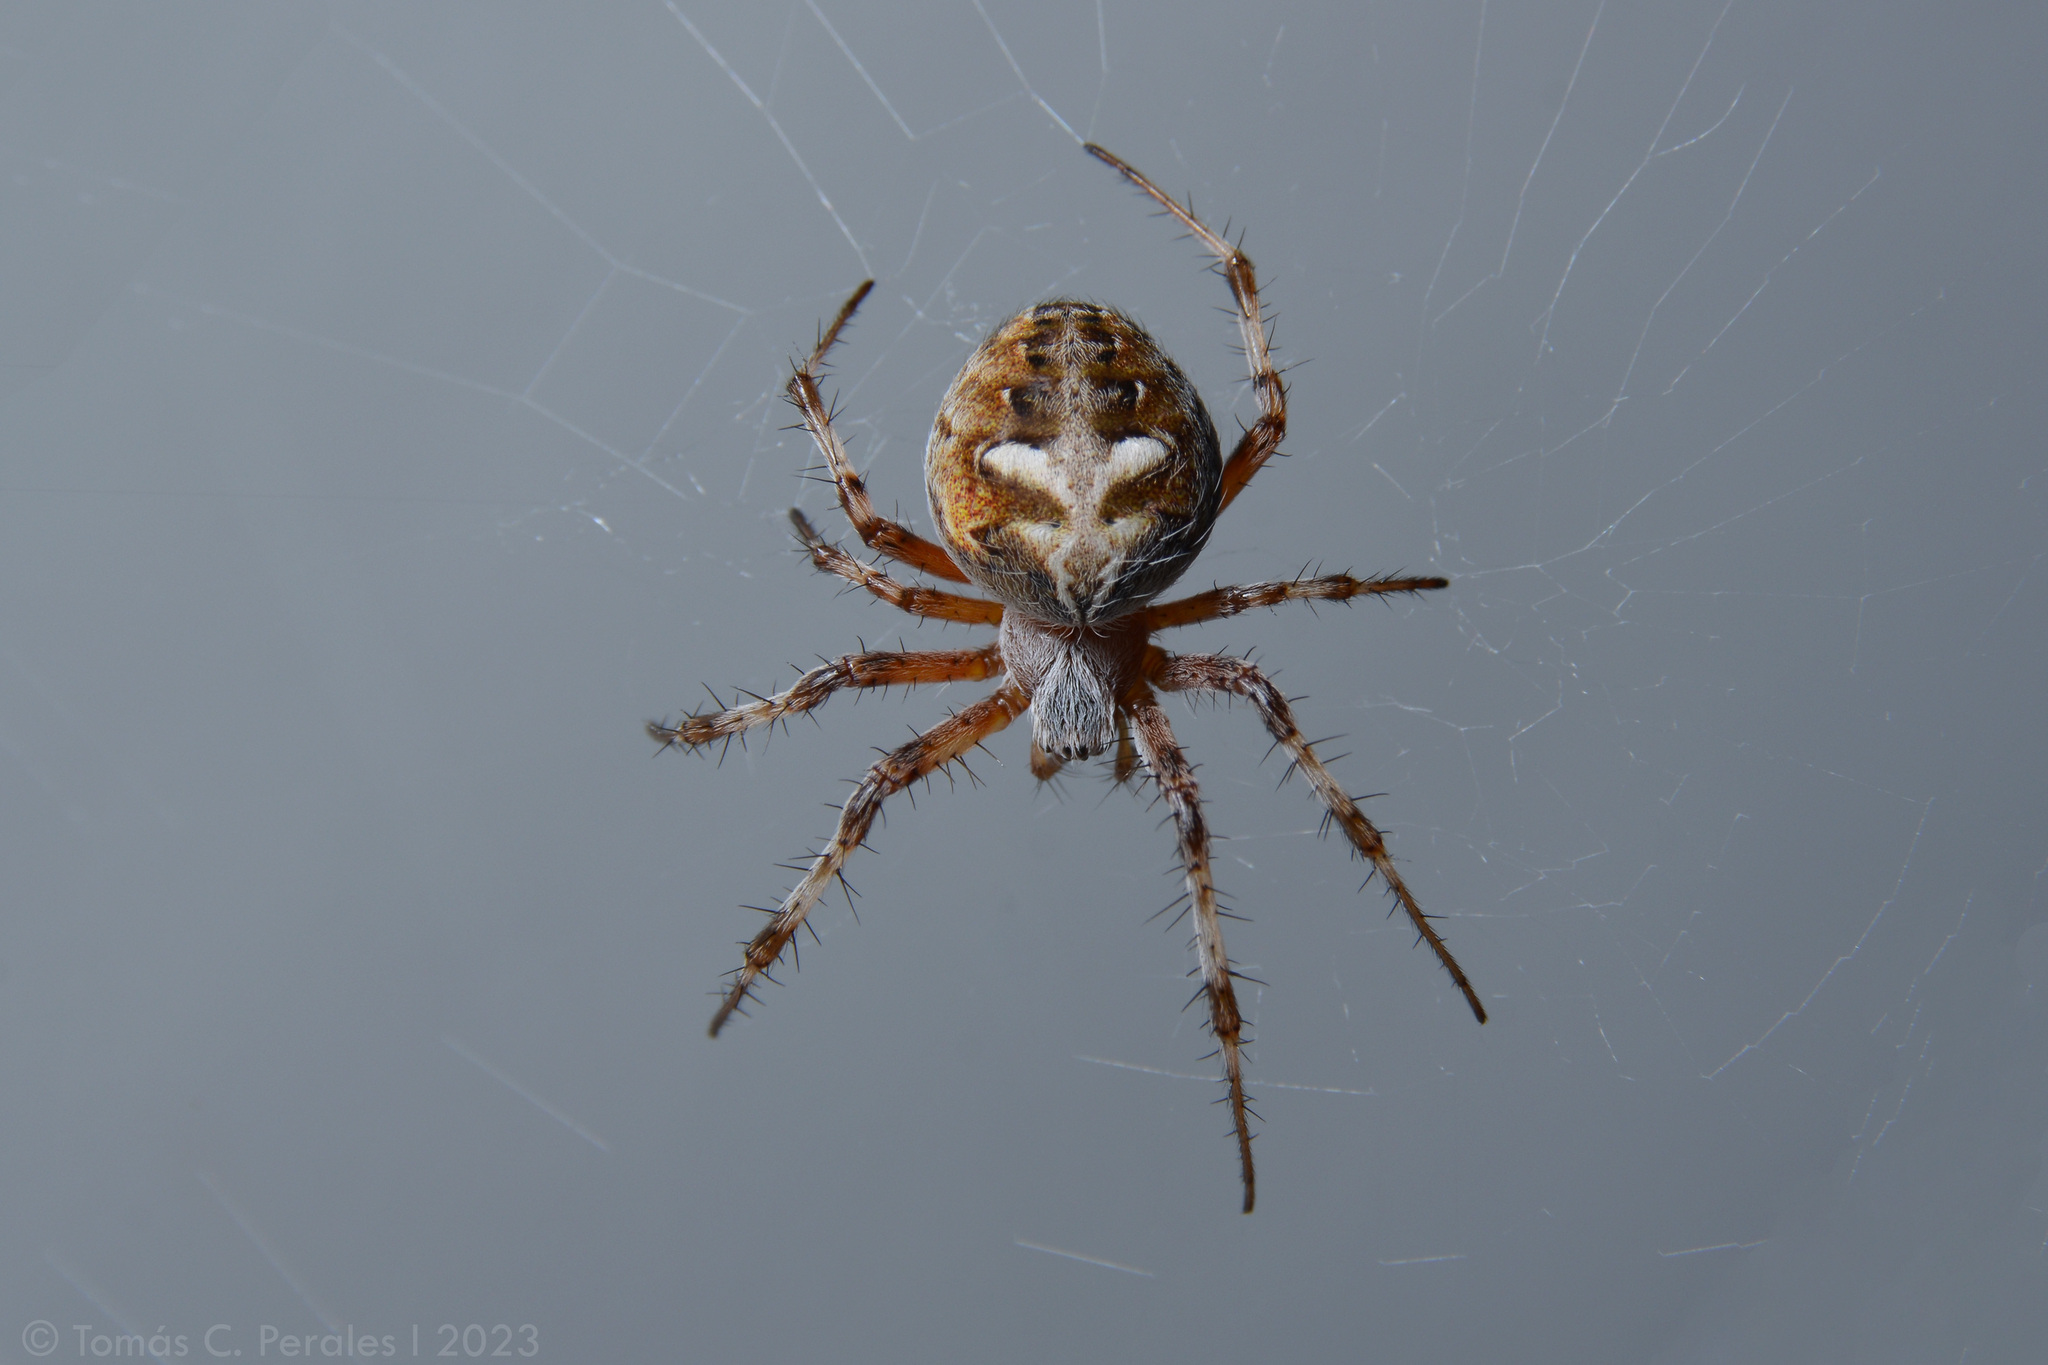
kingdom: Animalia
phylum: Arthropoda
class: Arachnida
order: Araneae
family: Araneidae
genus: Metepeira
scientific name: Metepeira
